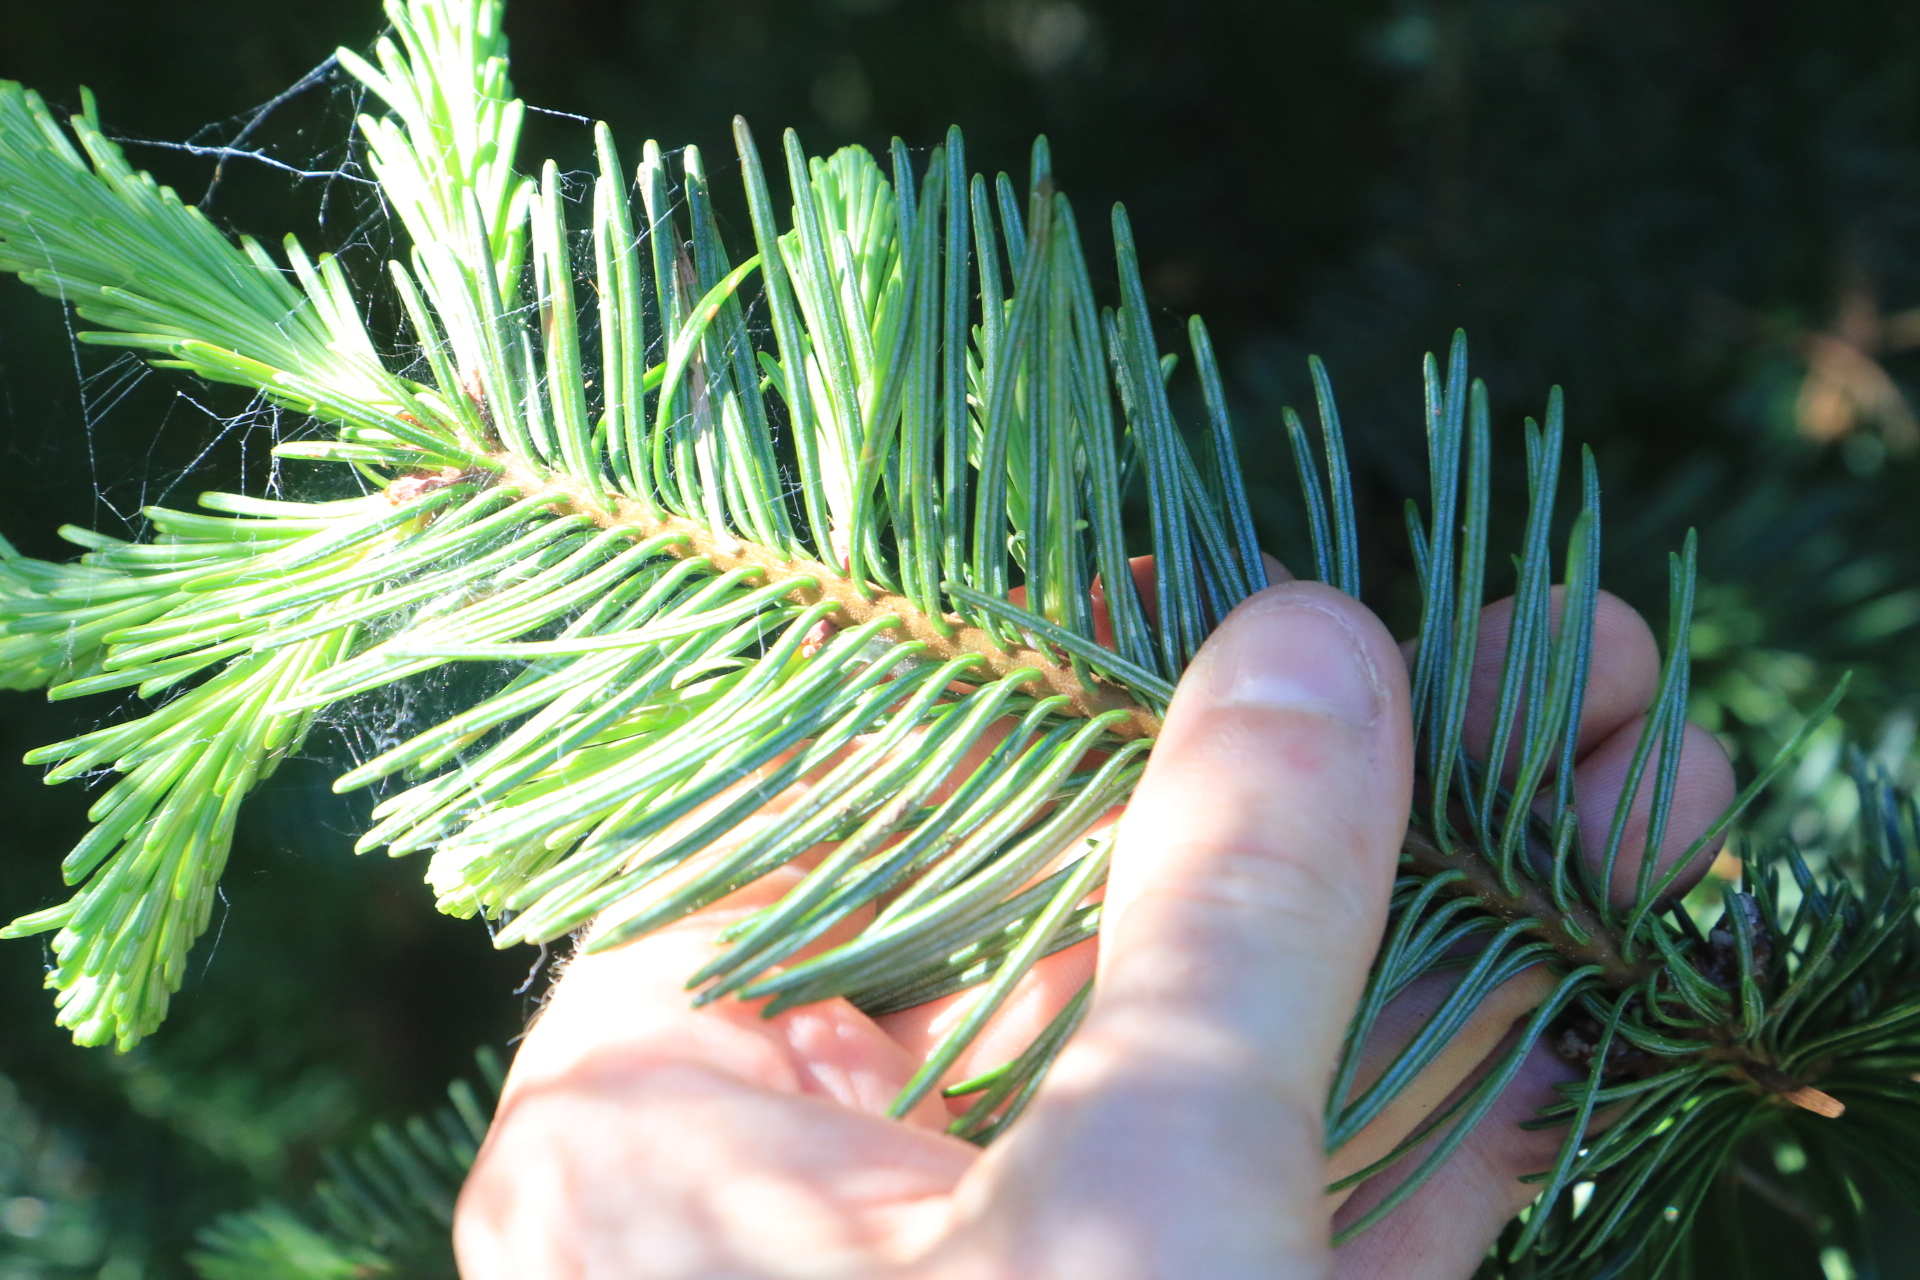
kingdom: Plantae
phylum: Tracheophyta
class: Pinopsida
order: Pinales
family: Pinaceae
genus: Abies
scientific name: Abies procera
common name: Noble fir
